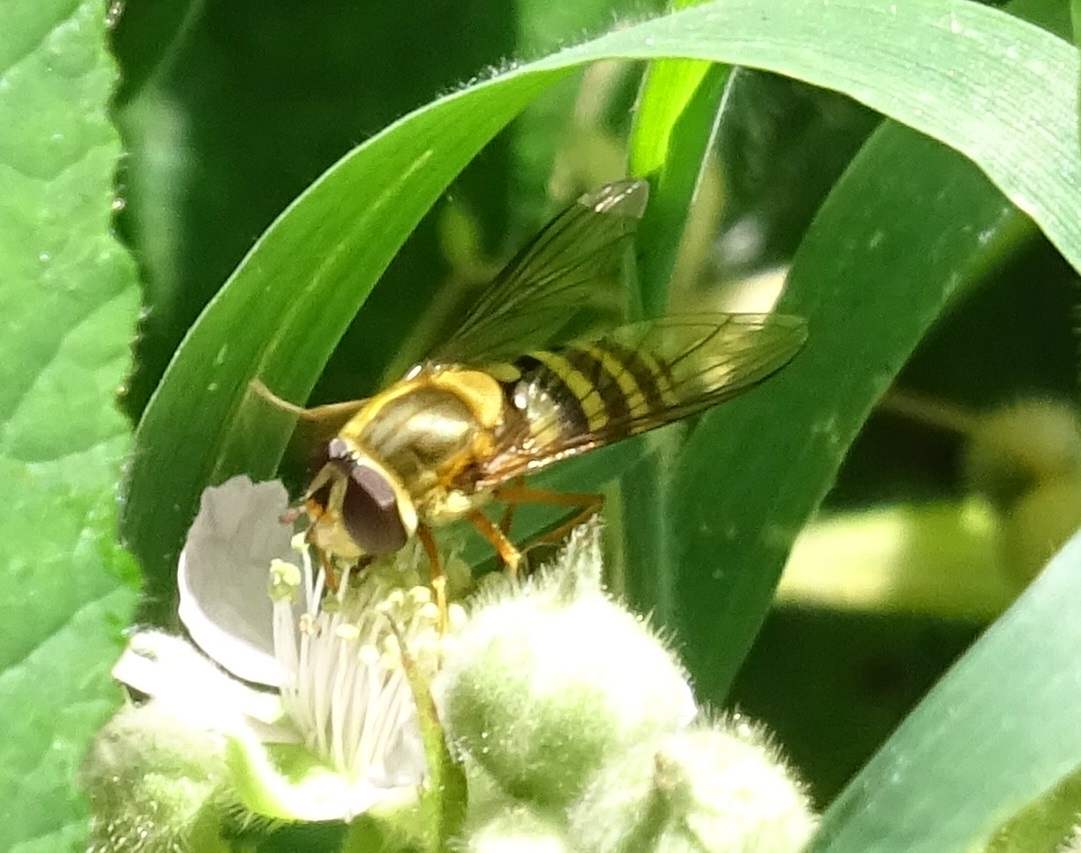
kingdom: Animalia
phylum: Arthropoda
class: Insecta
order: Diptera
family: Syrphidae
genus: Syrphus
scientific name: Syrphus ribesii
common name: Common flower fly
